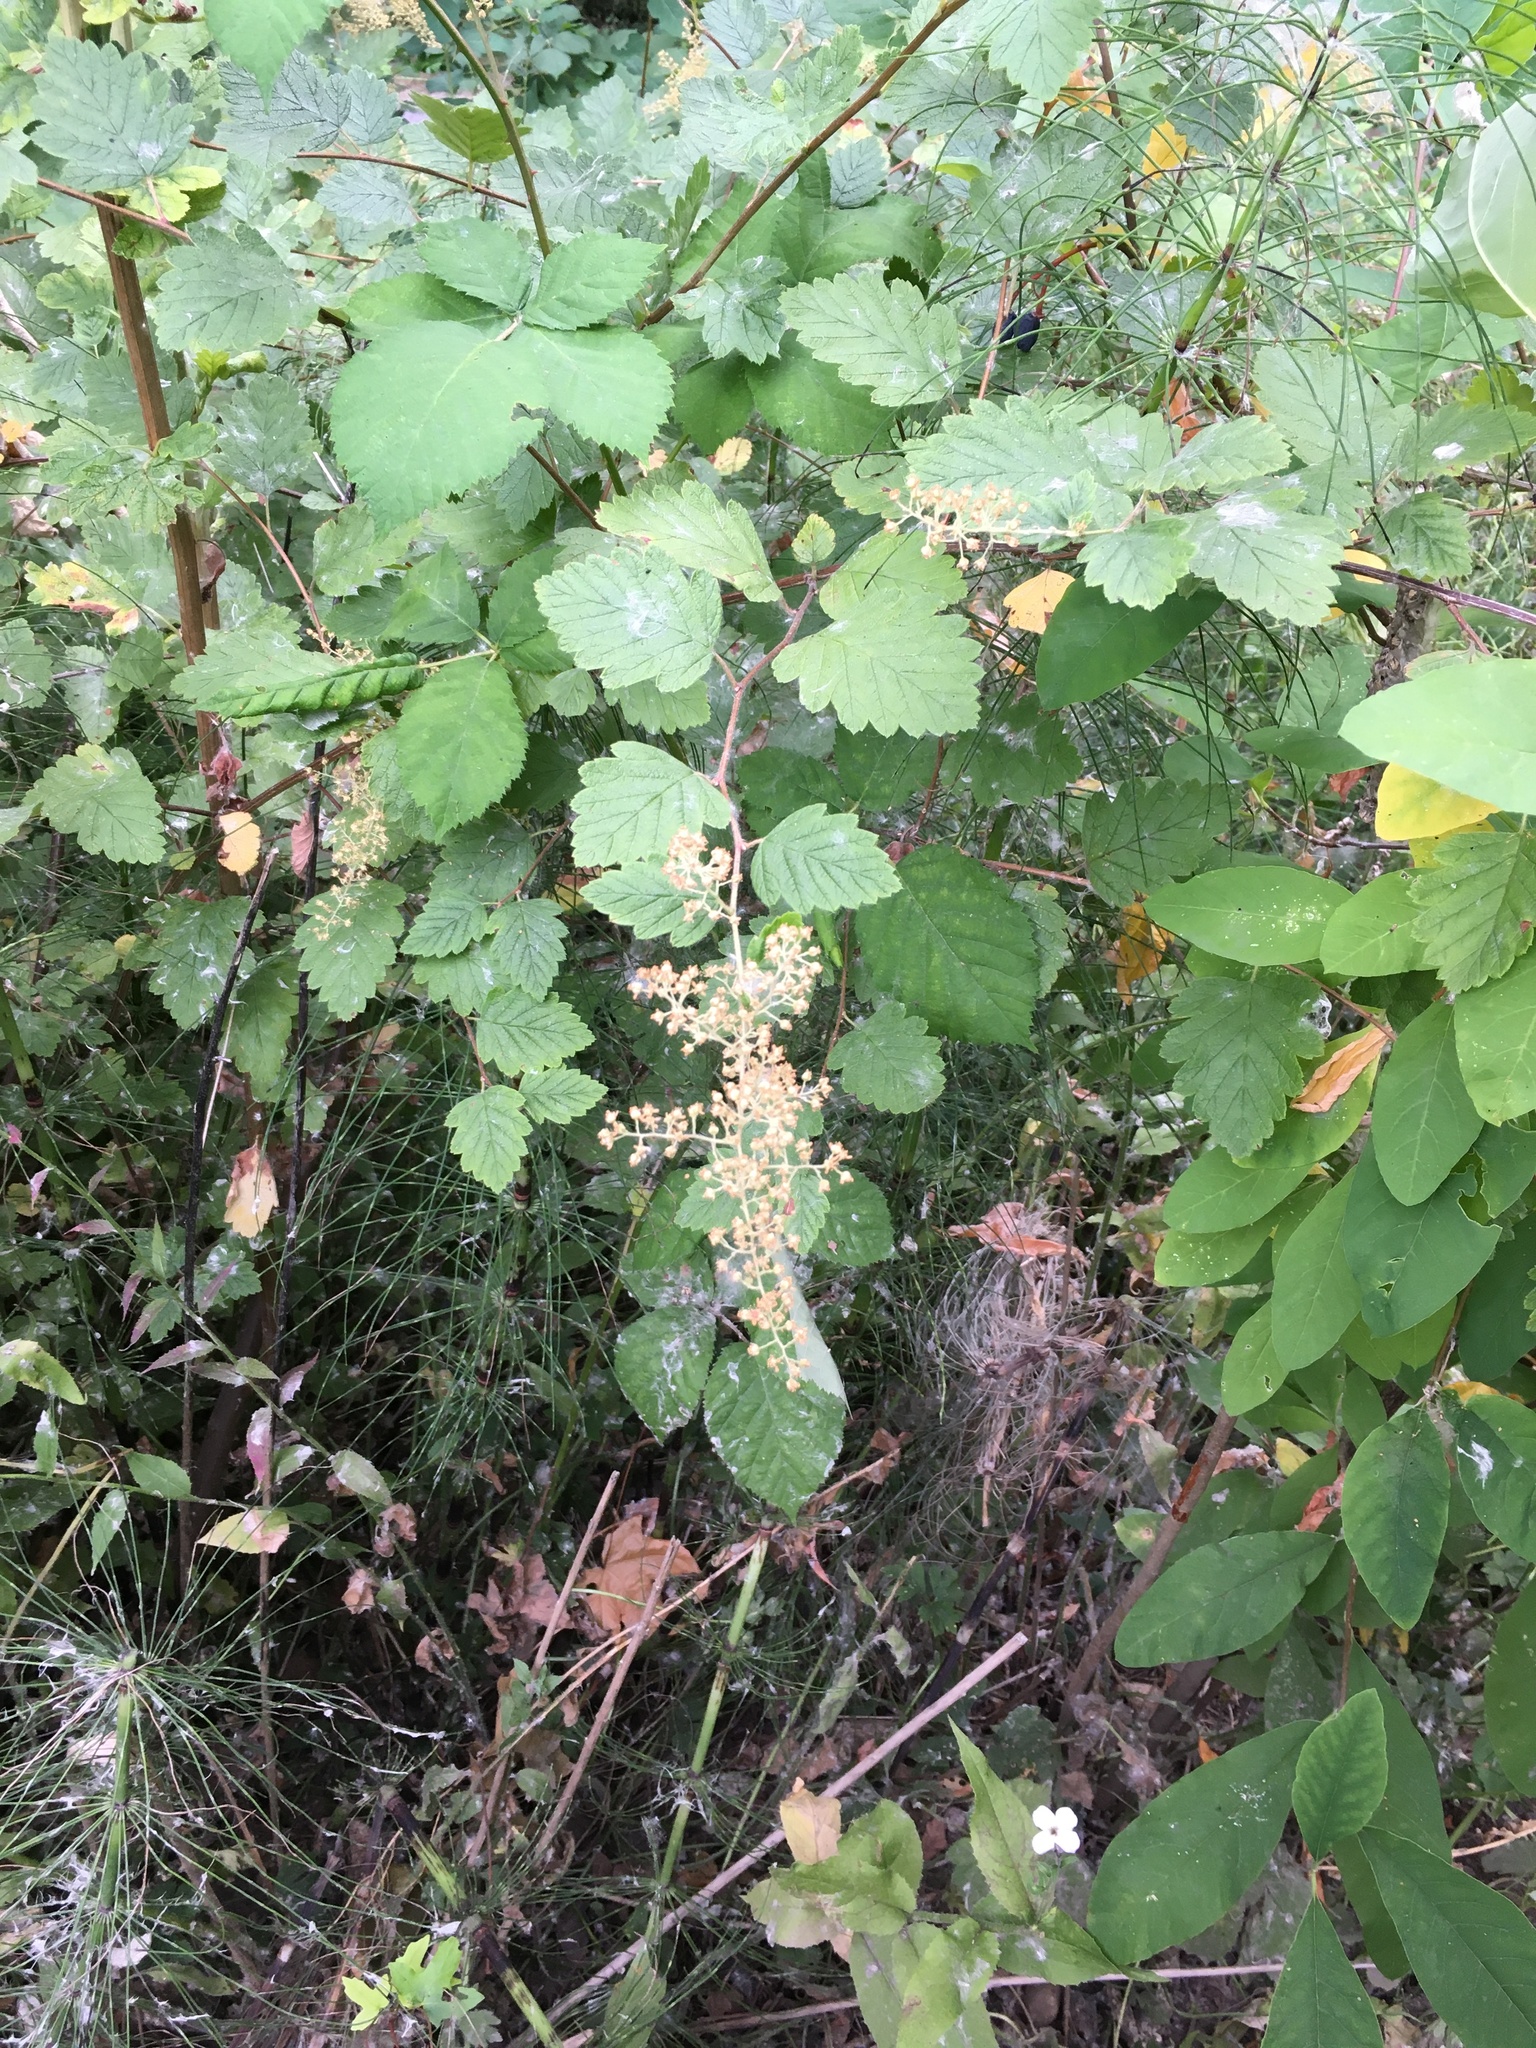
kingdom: Plantae
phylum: Tracheophyta
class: Magnoliopsida
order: Rosales
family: Rosaceae
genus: Holodiscus
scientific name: Holodiscus discolor
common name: Oceanspray
